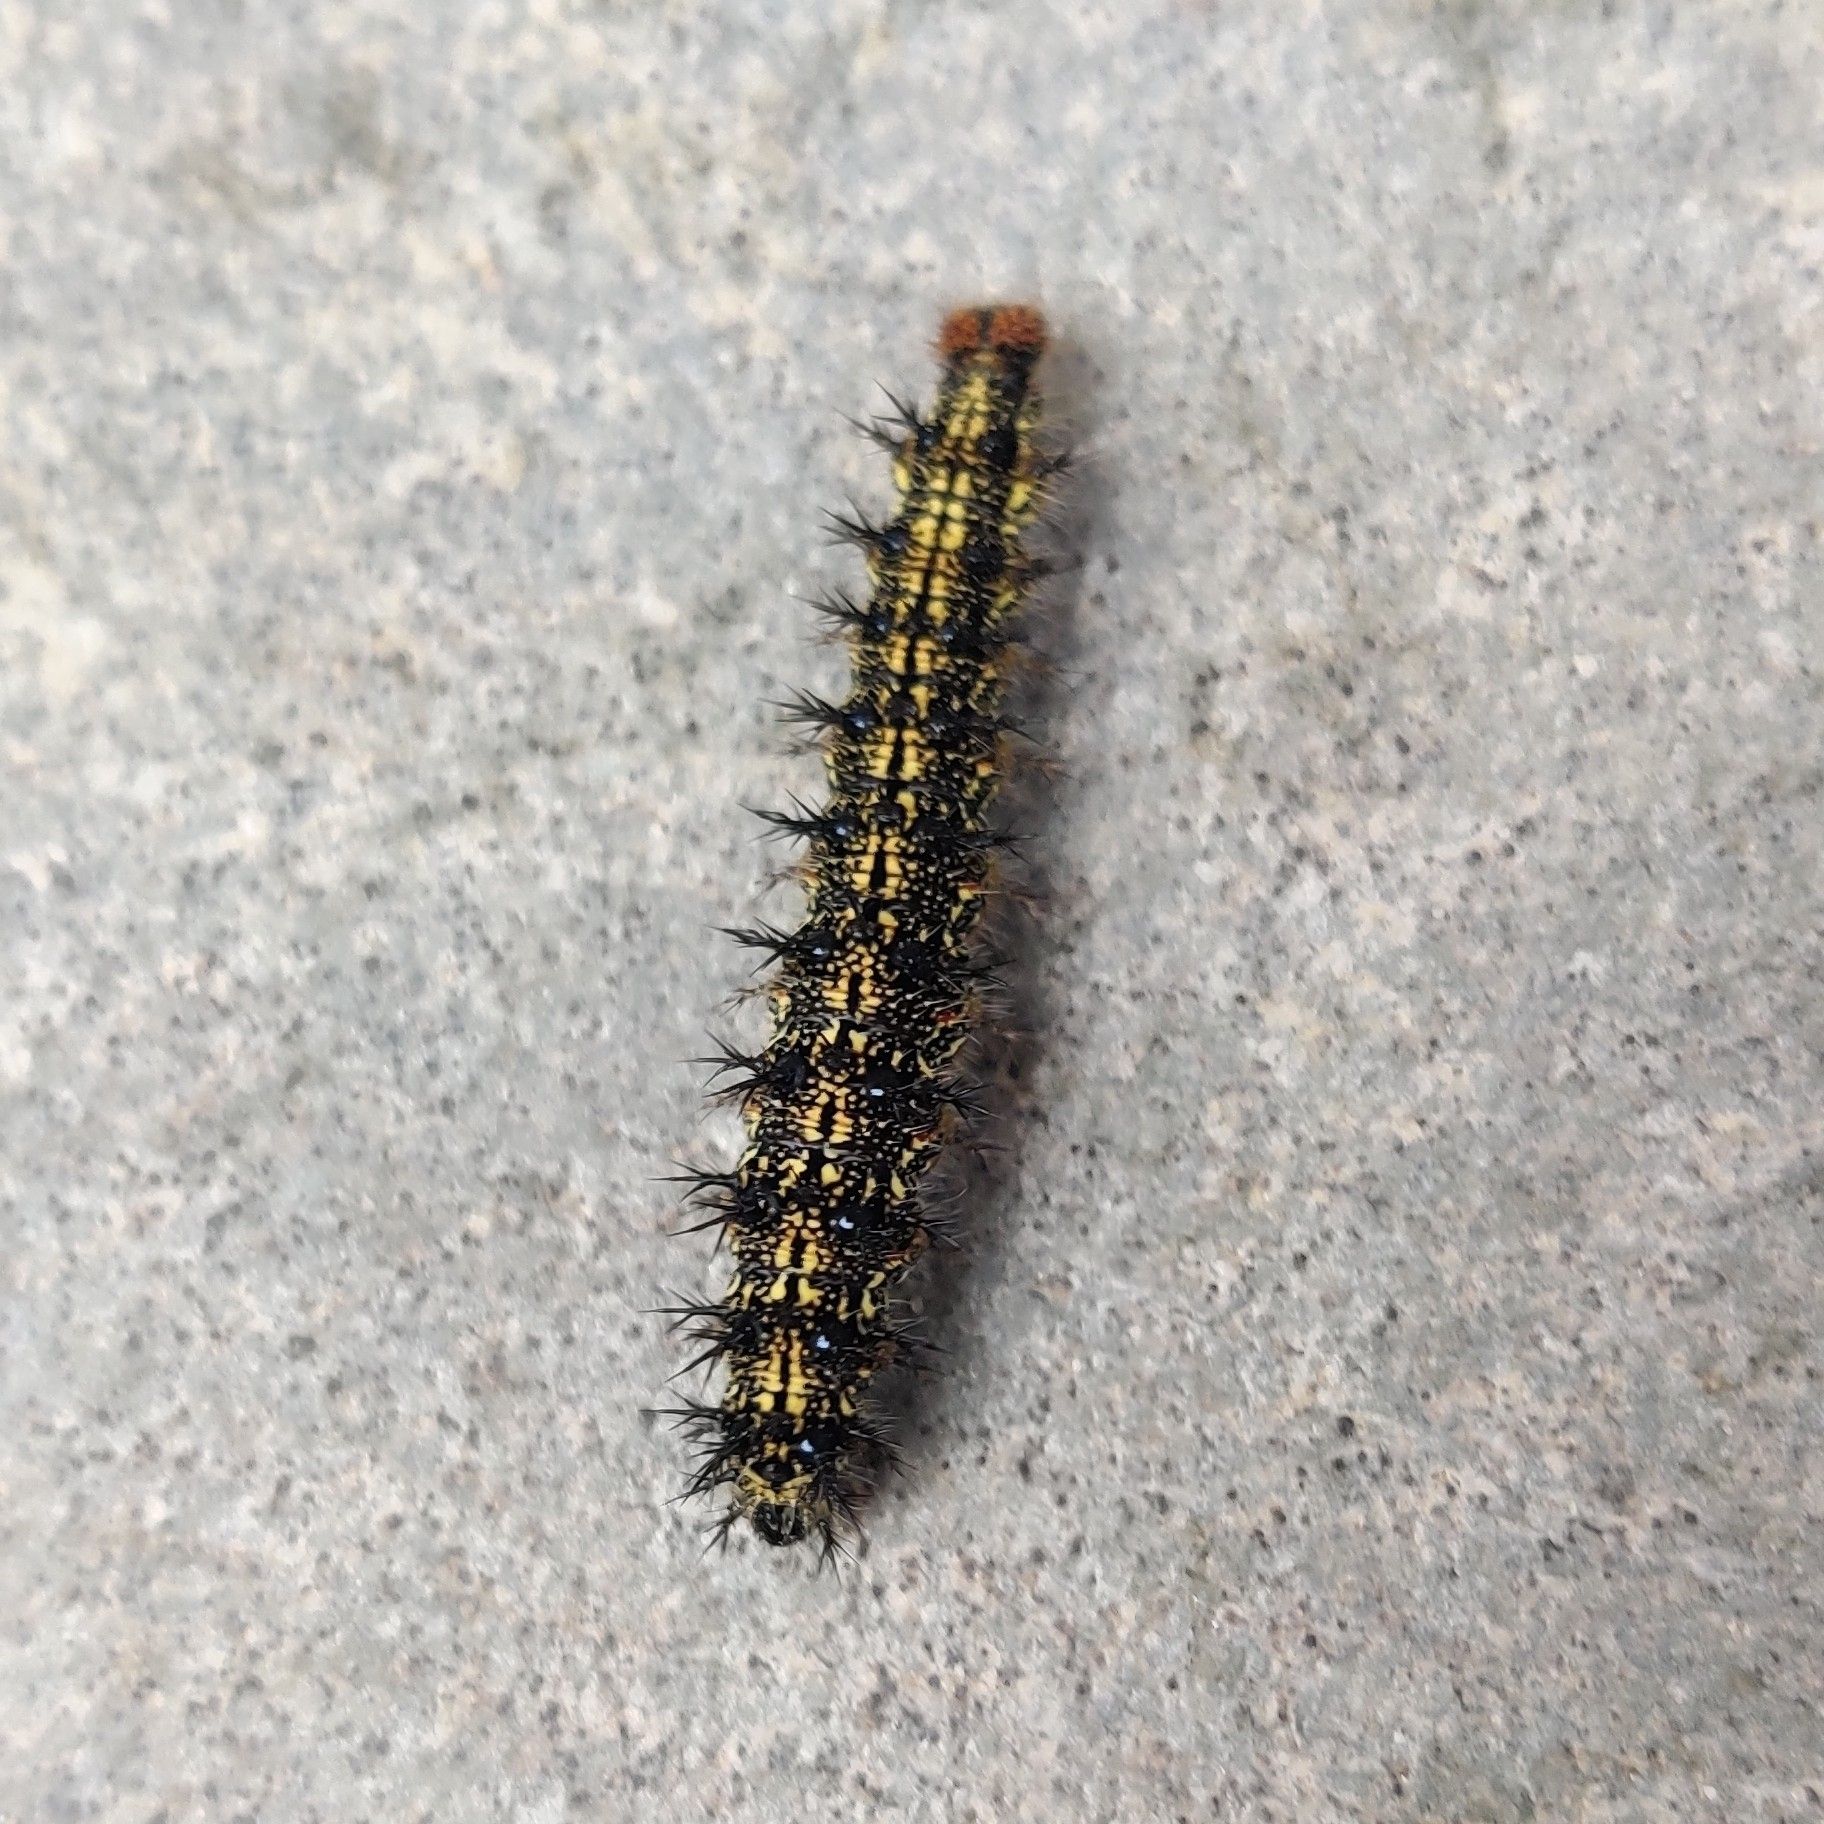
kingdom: Animalia
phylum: Arthropoda
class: Insecta
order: Lepidoptera
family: Nymphalidae
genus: Aglais
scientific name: Aglais caschmirensis
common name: Indian tortoiseshell
